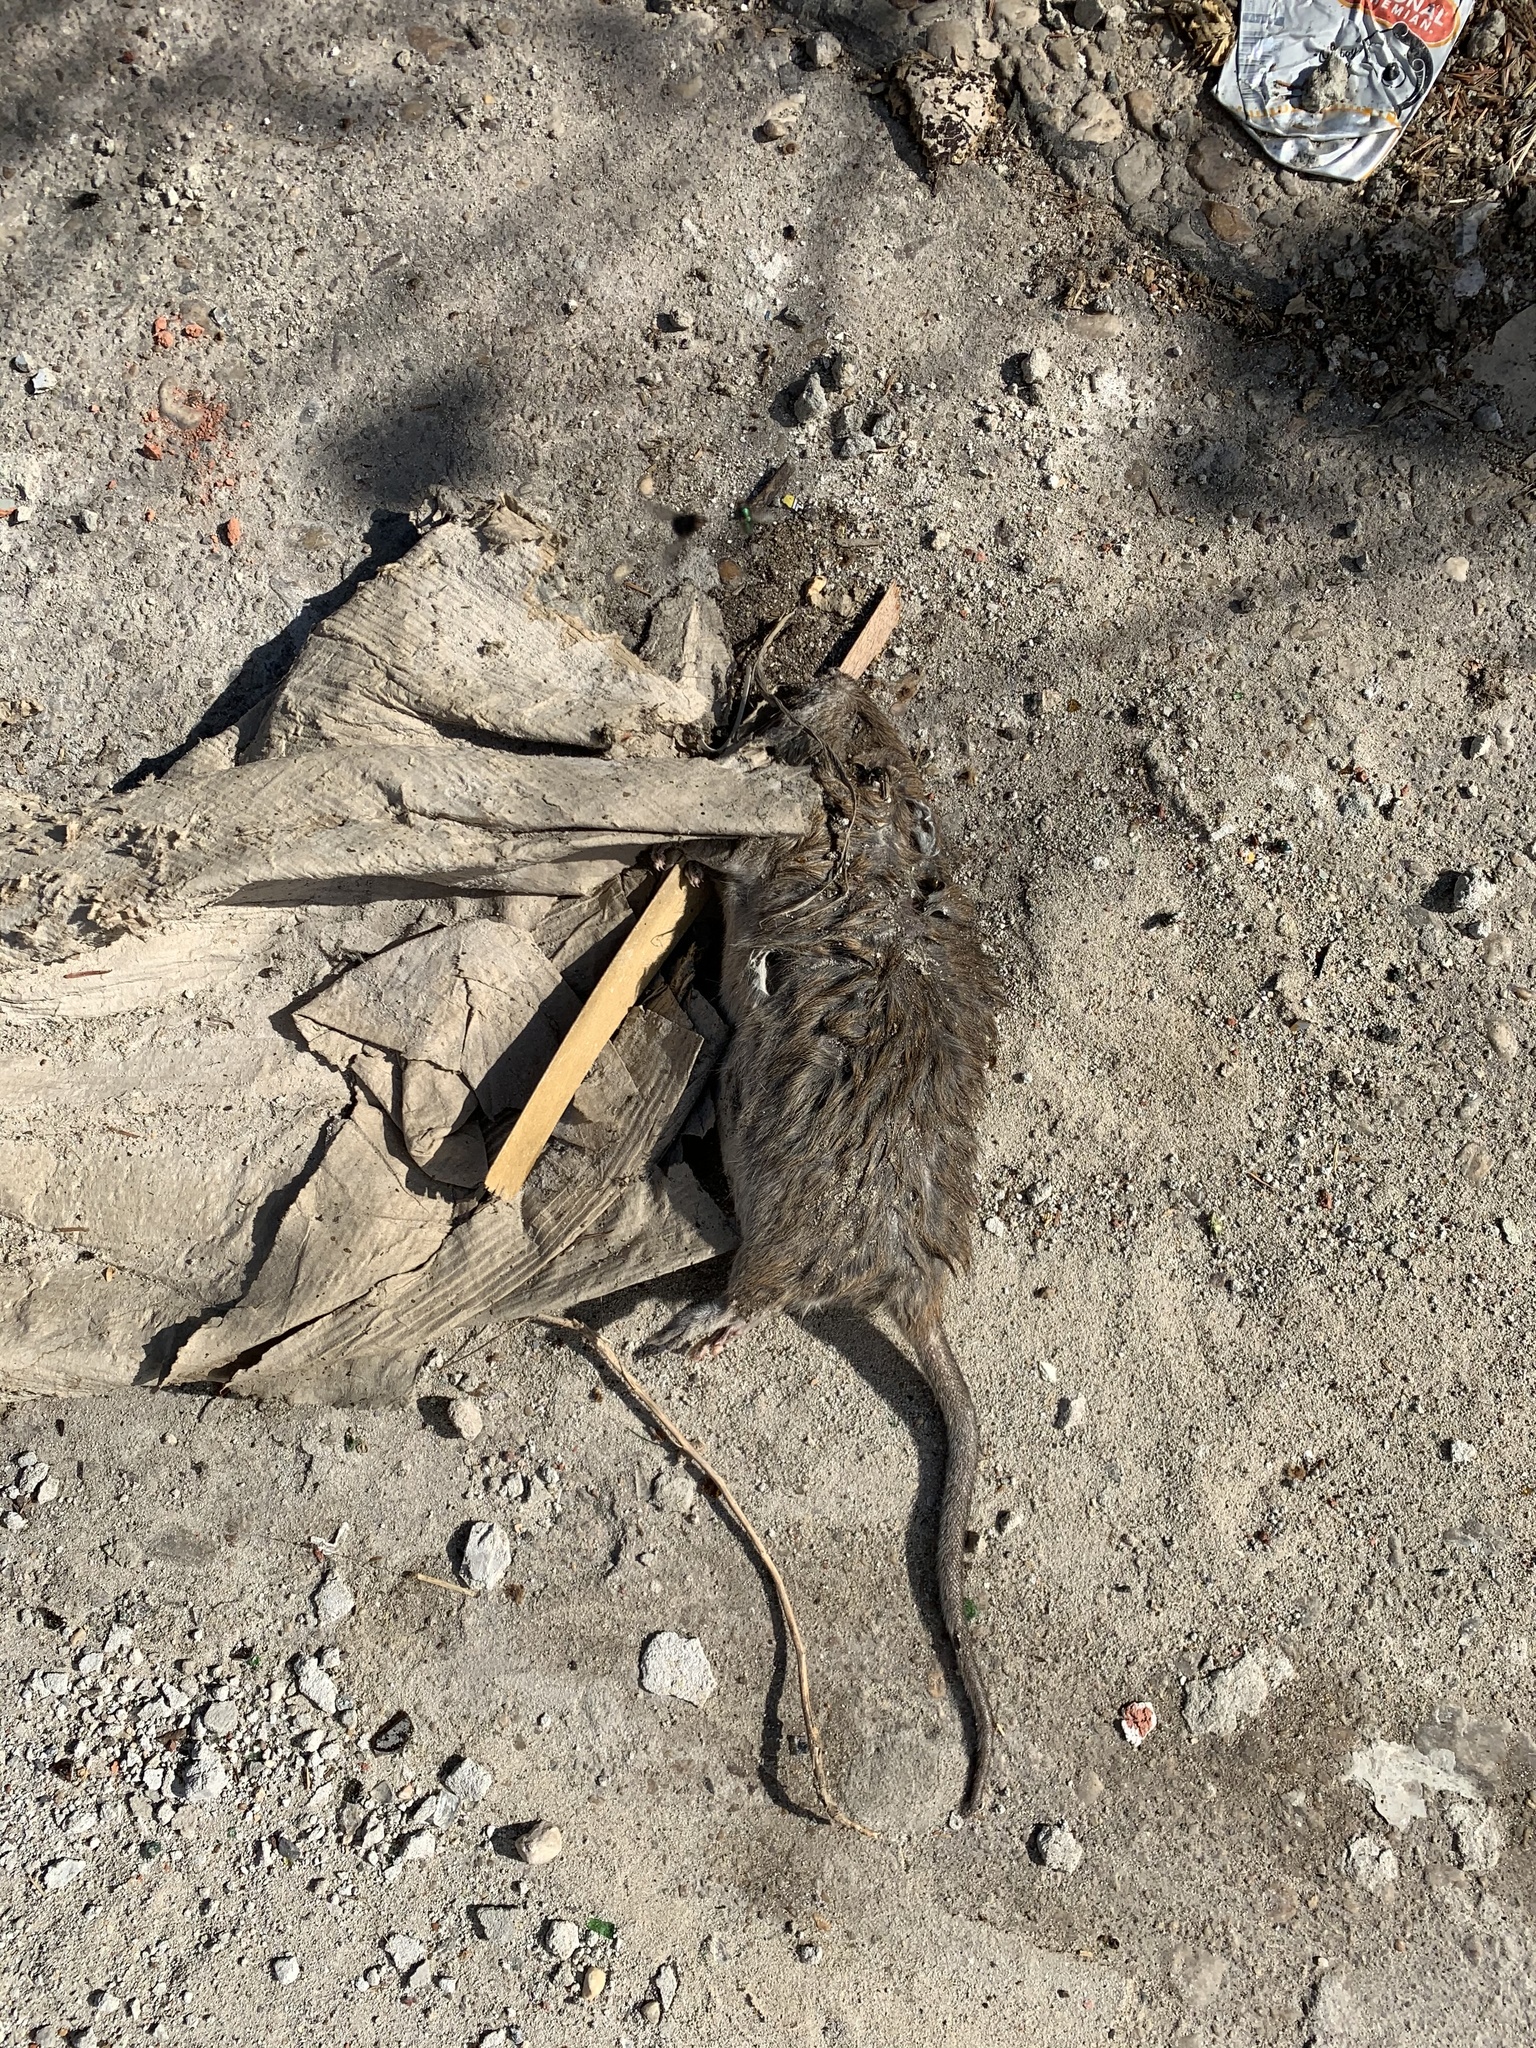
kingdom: Animalia
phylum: Chordata
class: Mammalia
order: Rodentia
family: Muridae
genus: Rattus
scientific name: Rattus norvegicus
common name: Brown rat
